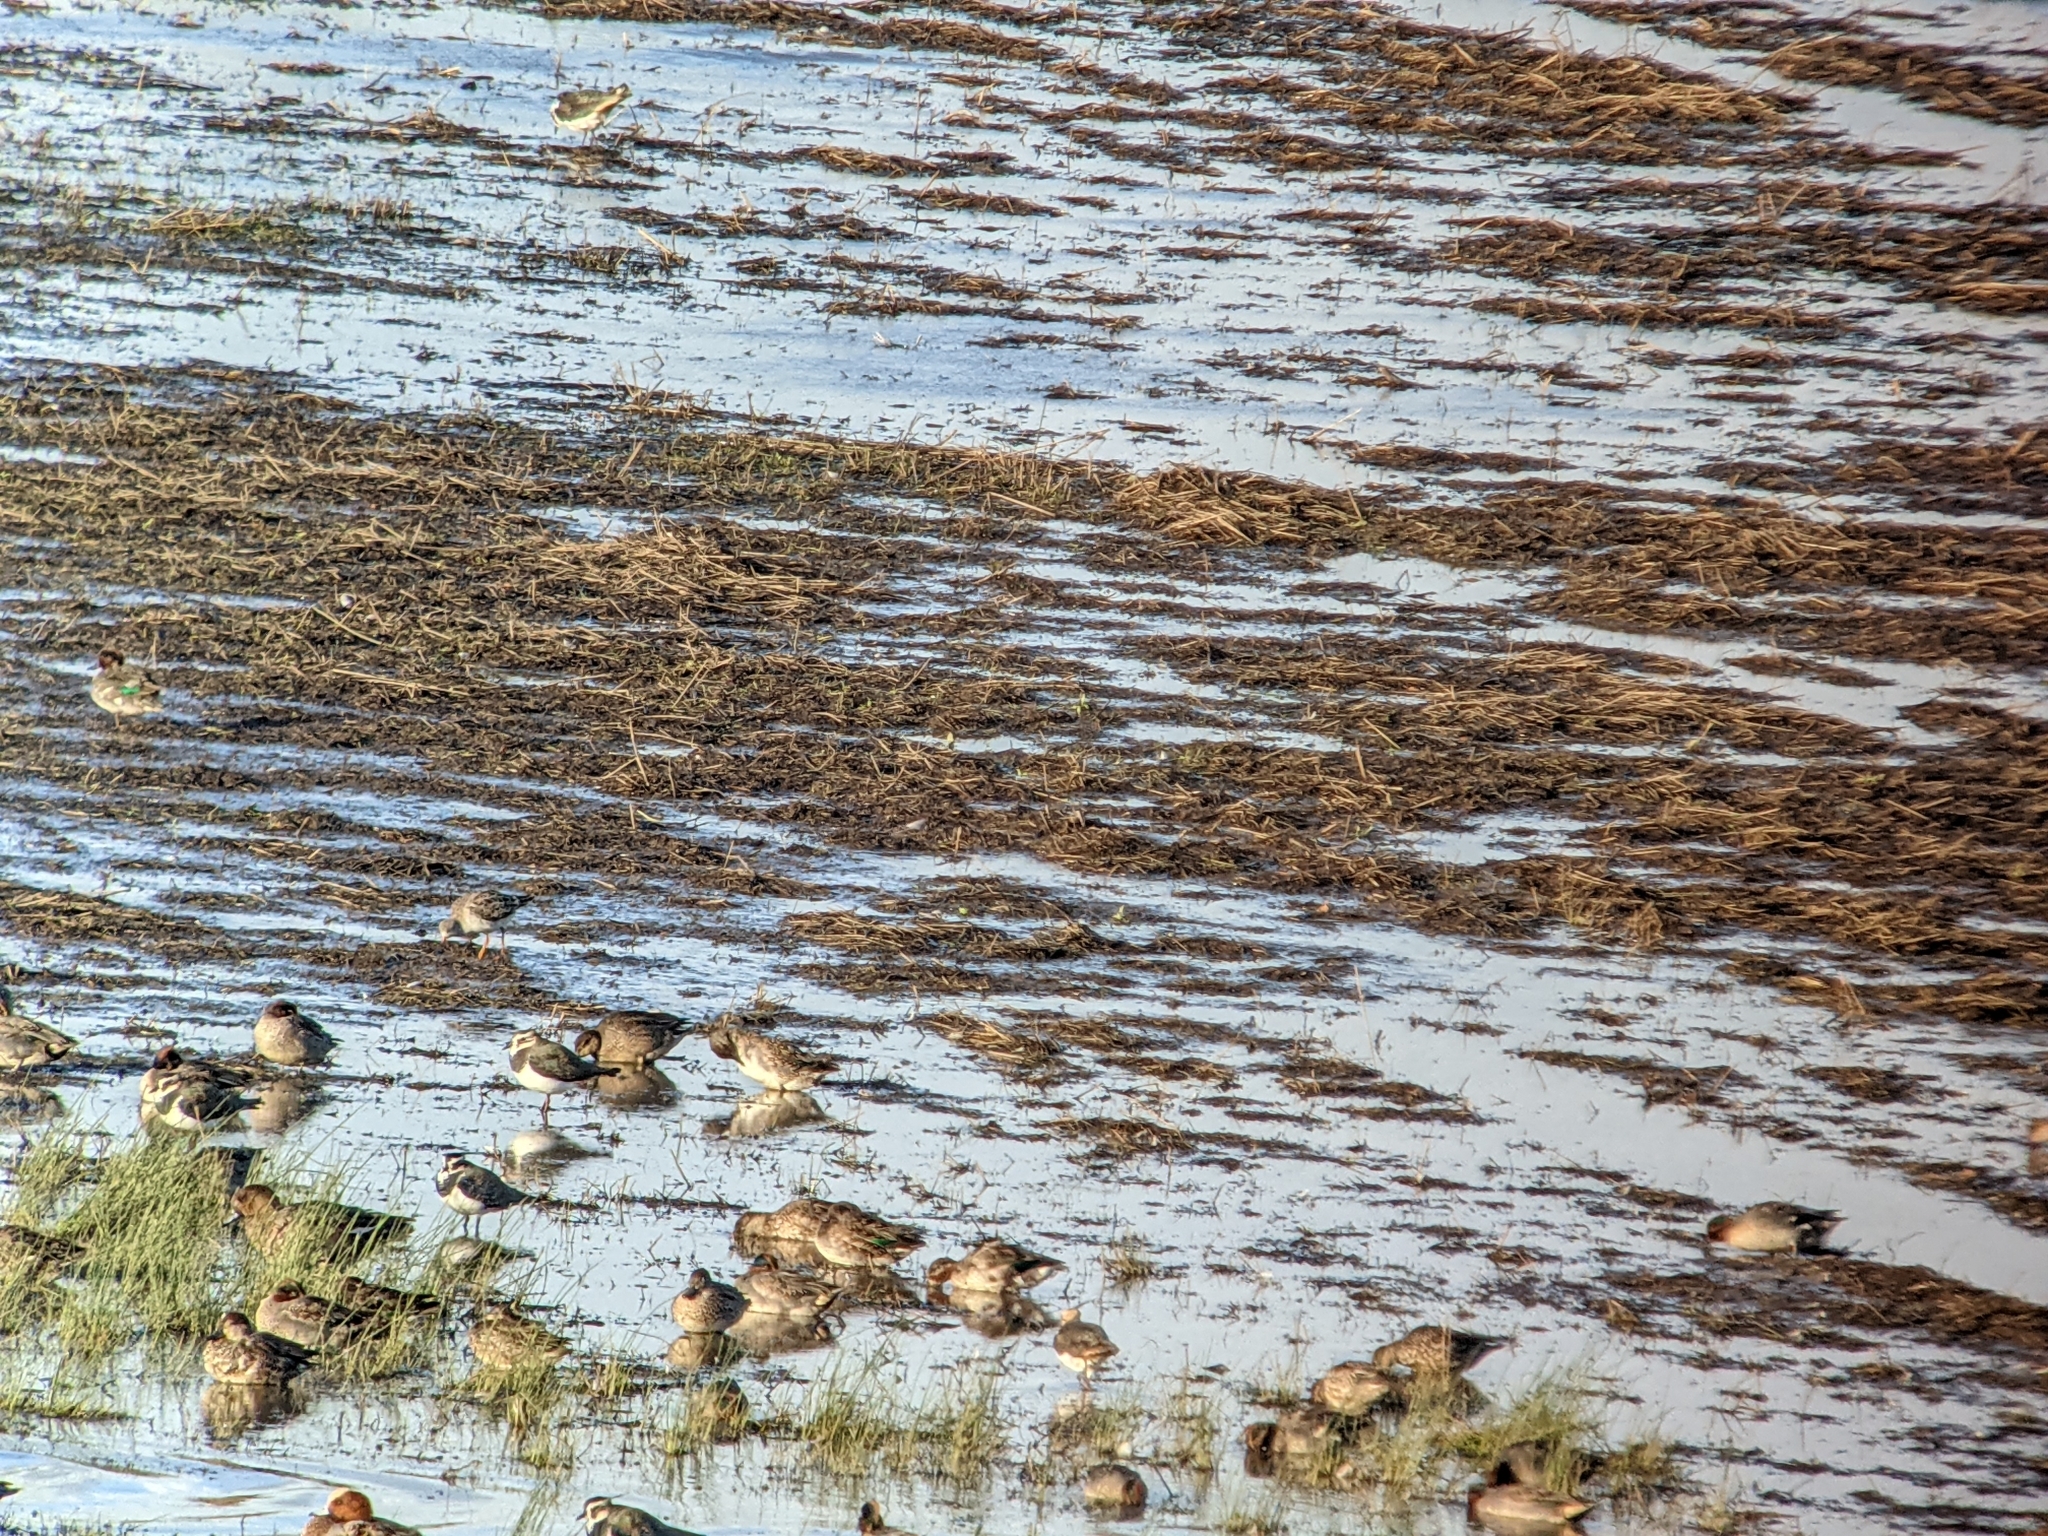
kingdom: Animalia
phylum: Chordata
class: Aves
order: Charadriiformes
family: Scolopacidae
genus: Calidris
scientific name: Calidris pugnax
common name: Ruff
